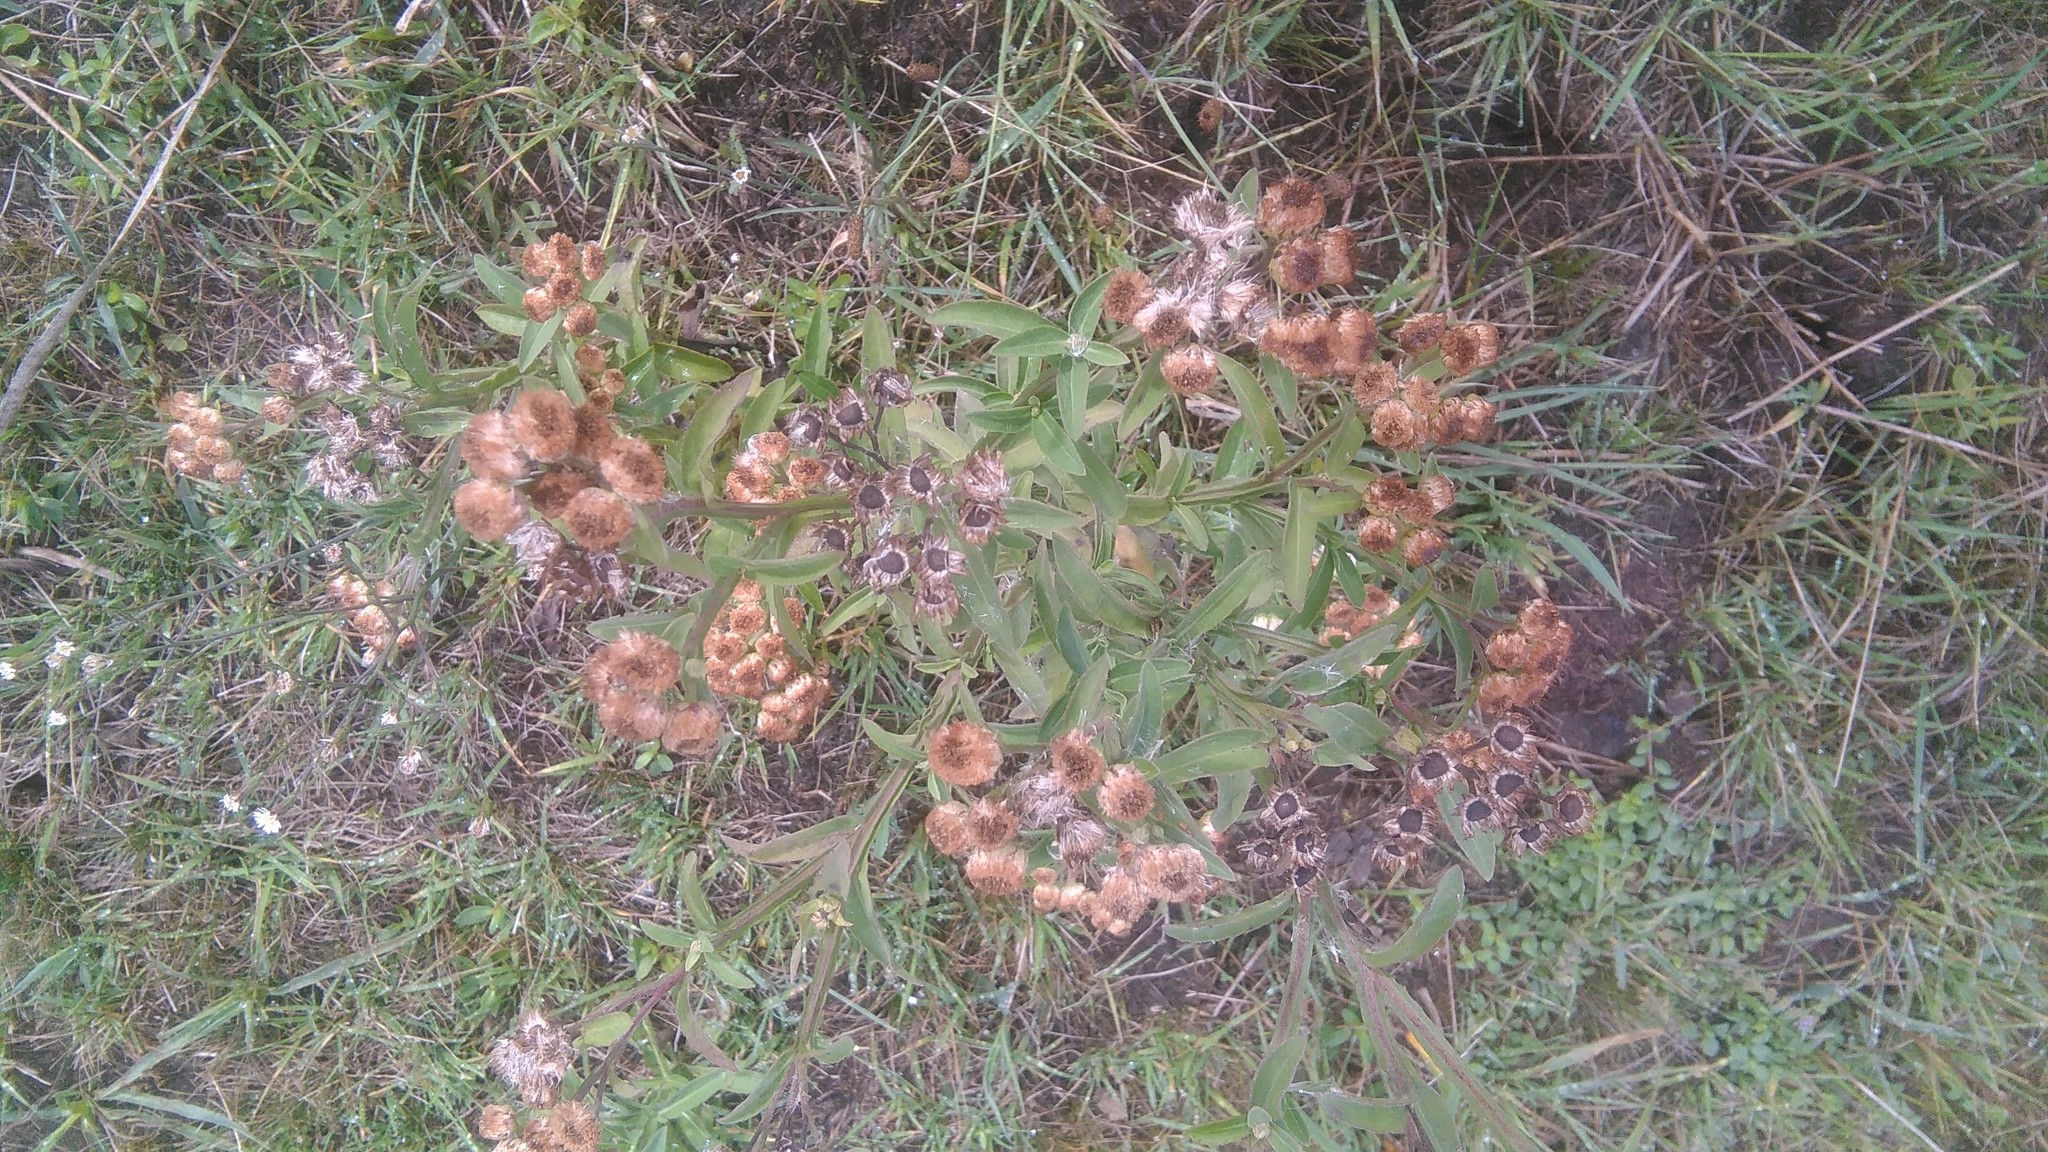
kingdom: Plantae
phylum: Tracheophyta
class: Magnoliopsida
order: Asterales
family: Asteraceae
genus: Pluchea
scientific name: Pluchea sagittalis
